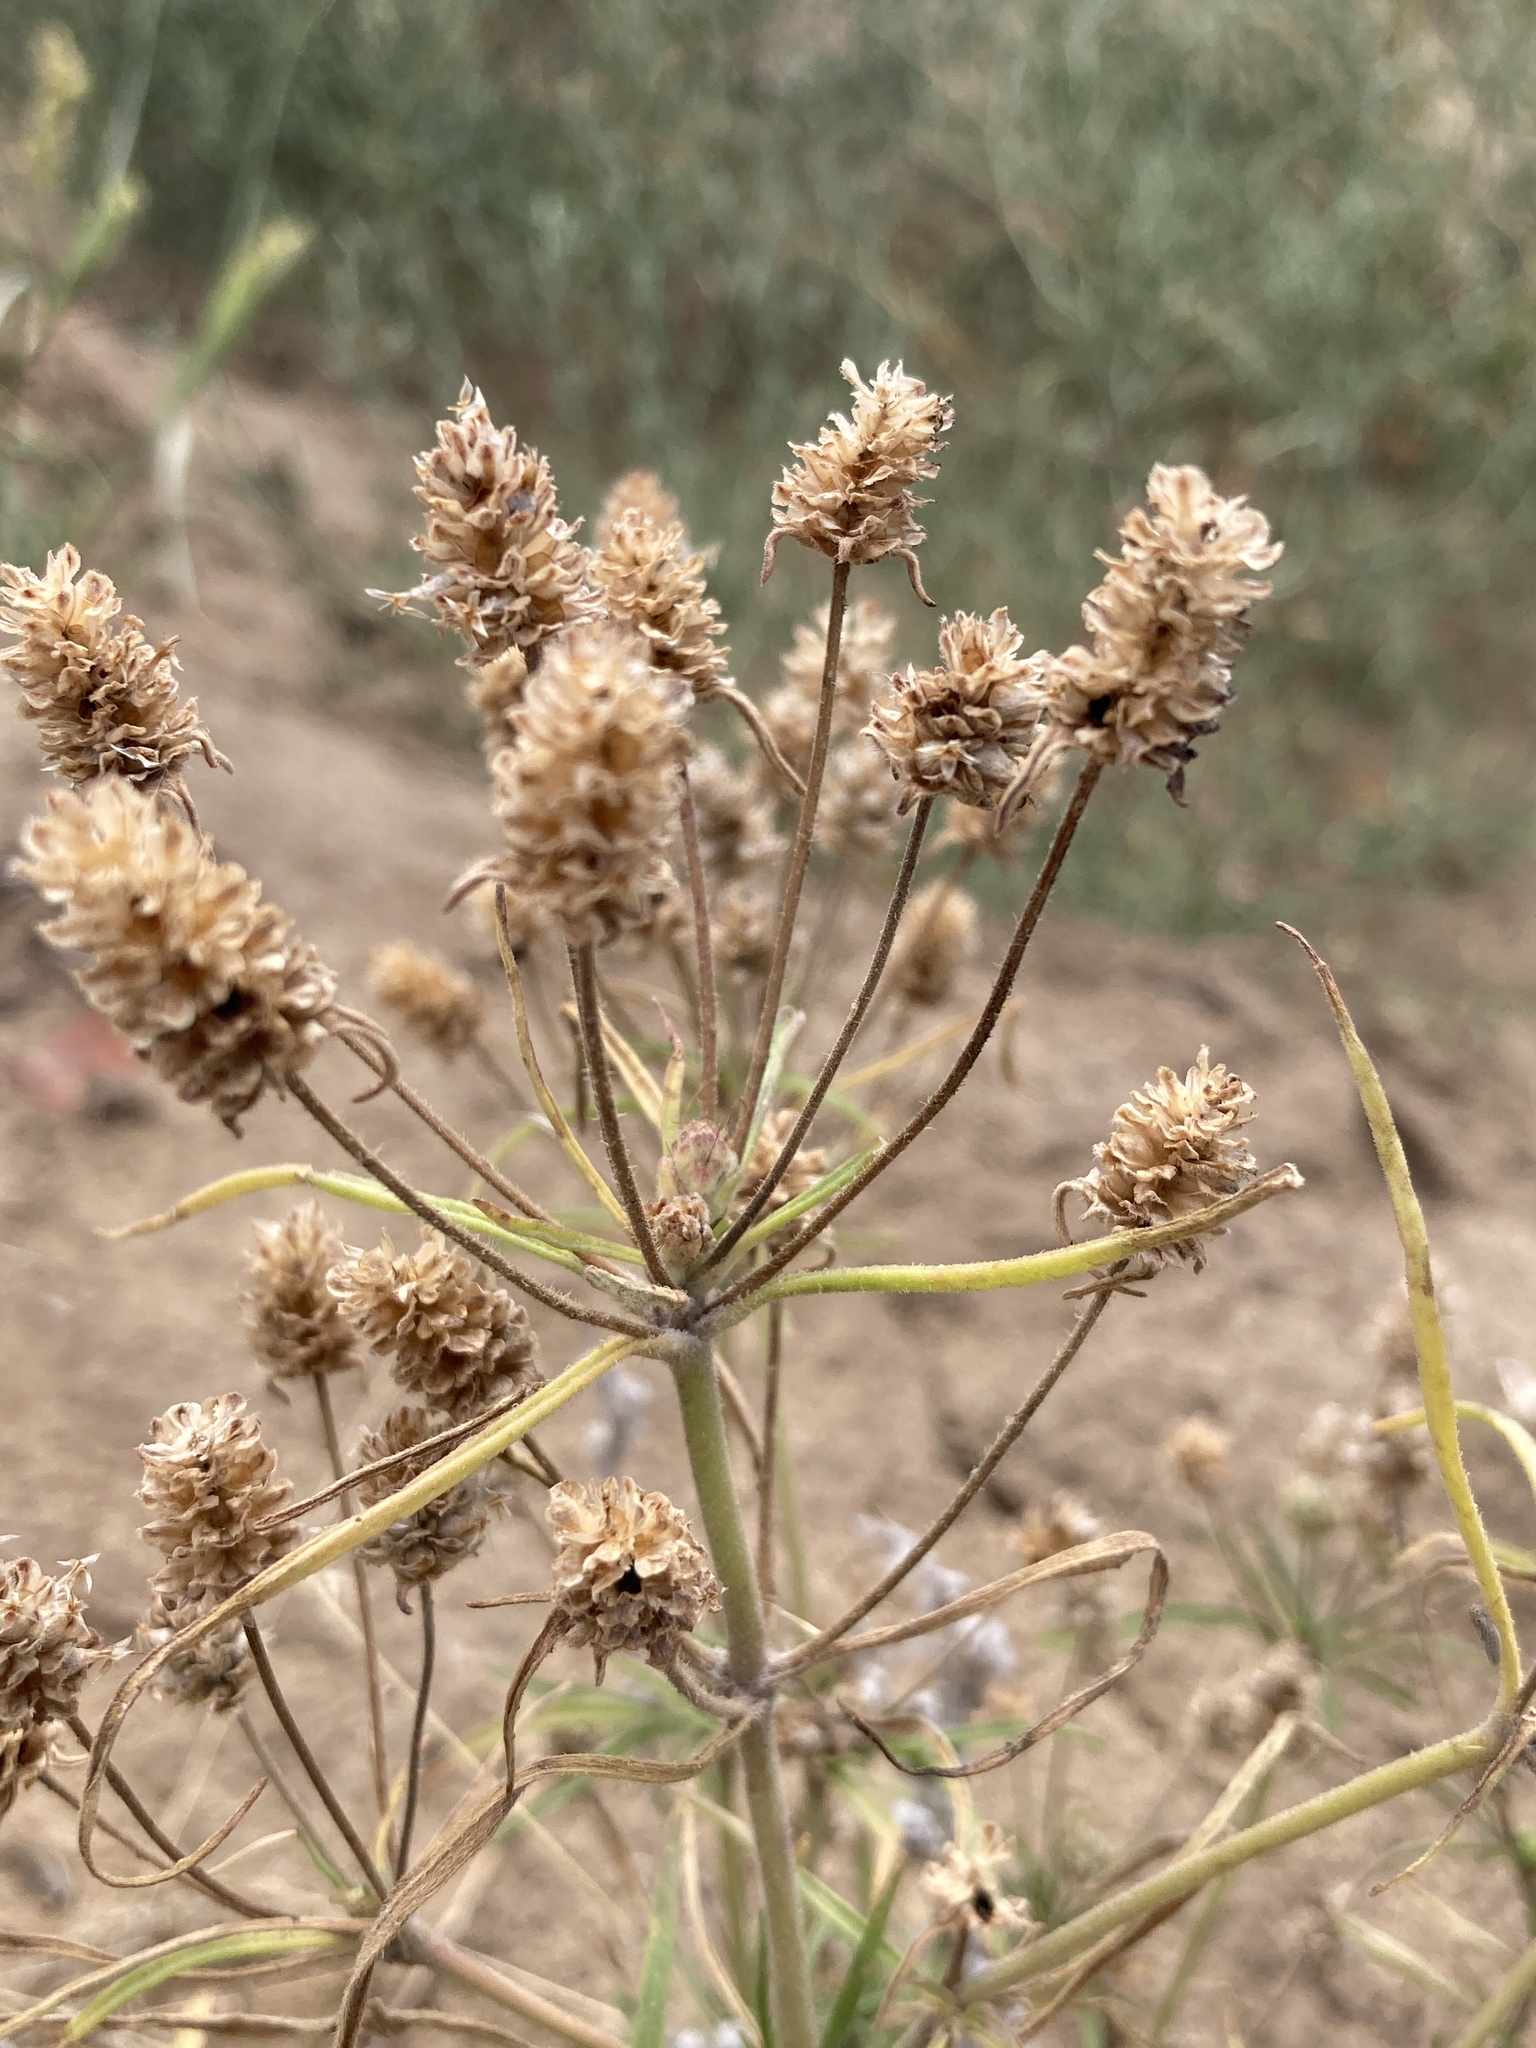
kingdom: Plantae
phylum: Tracheophyta
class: Magnoliopsida
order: Lamiales
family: Plantaginaceae
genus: Plantago
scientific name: Plantago arenaria
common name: Branched plantain
